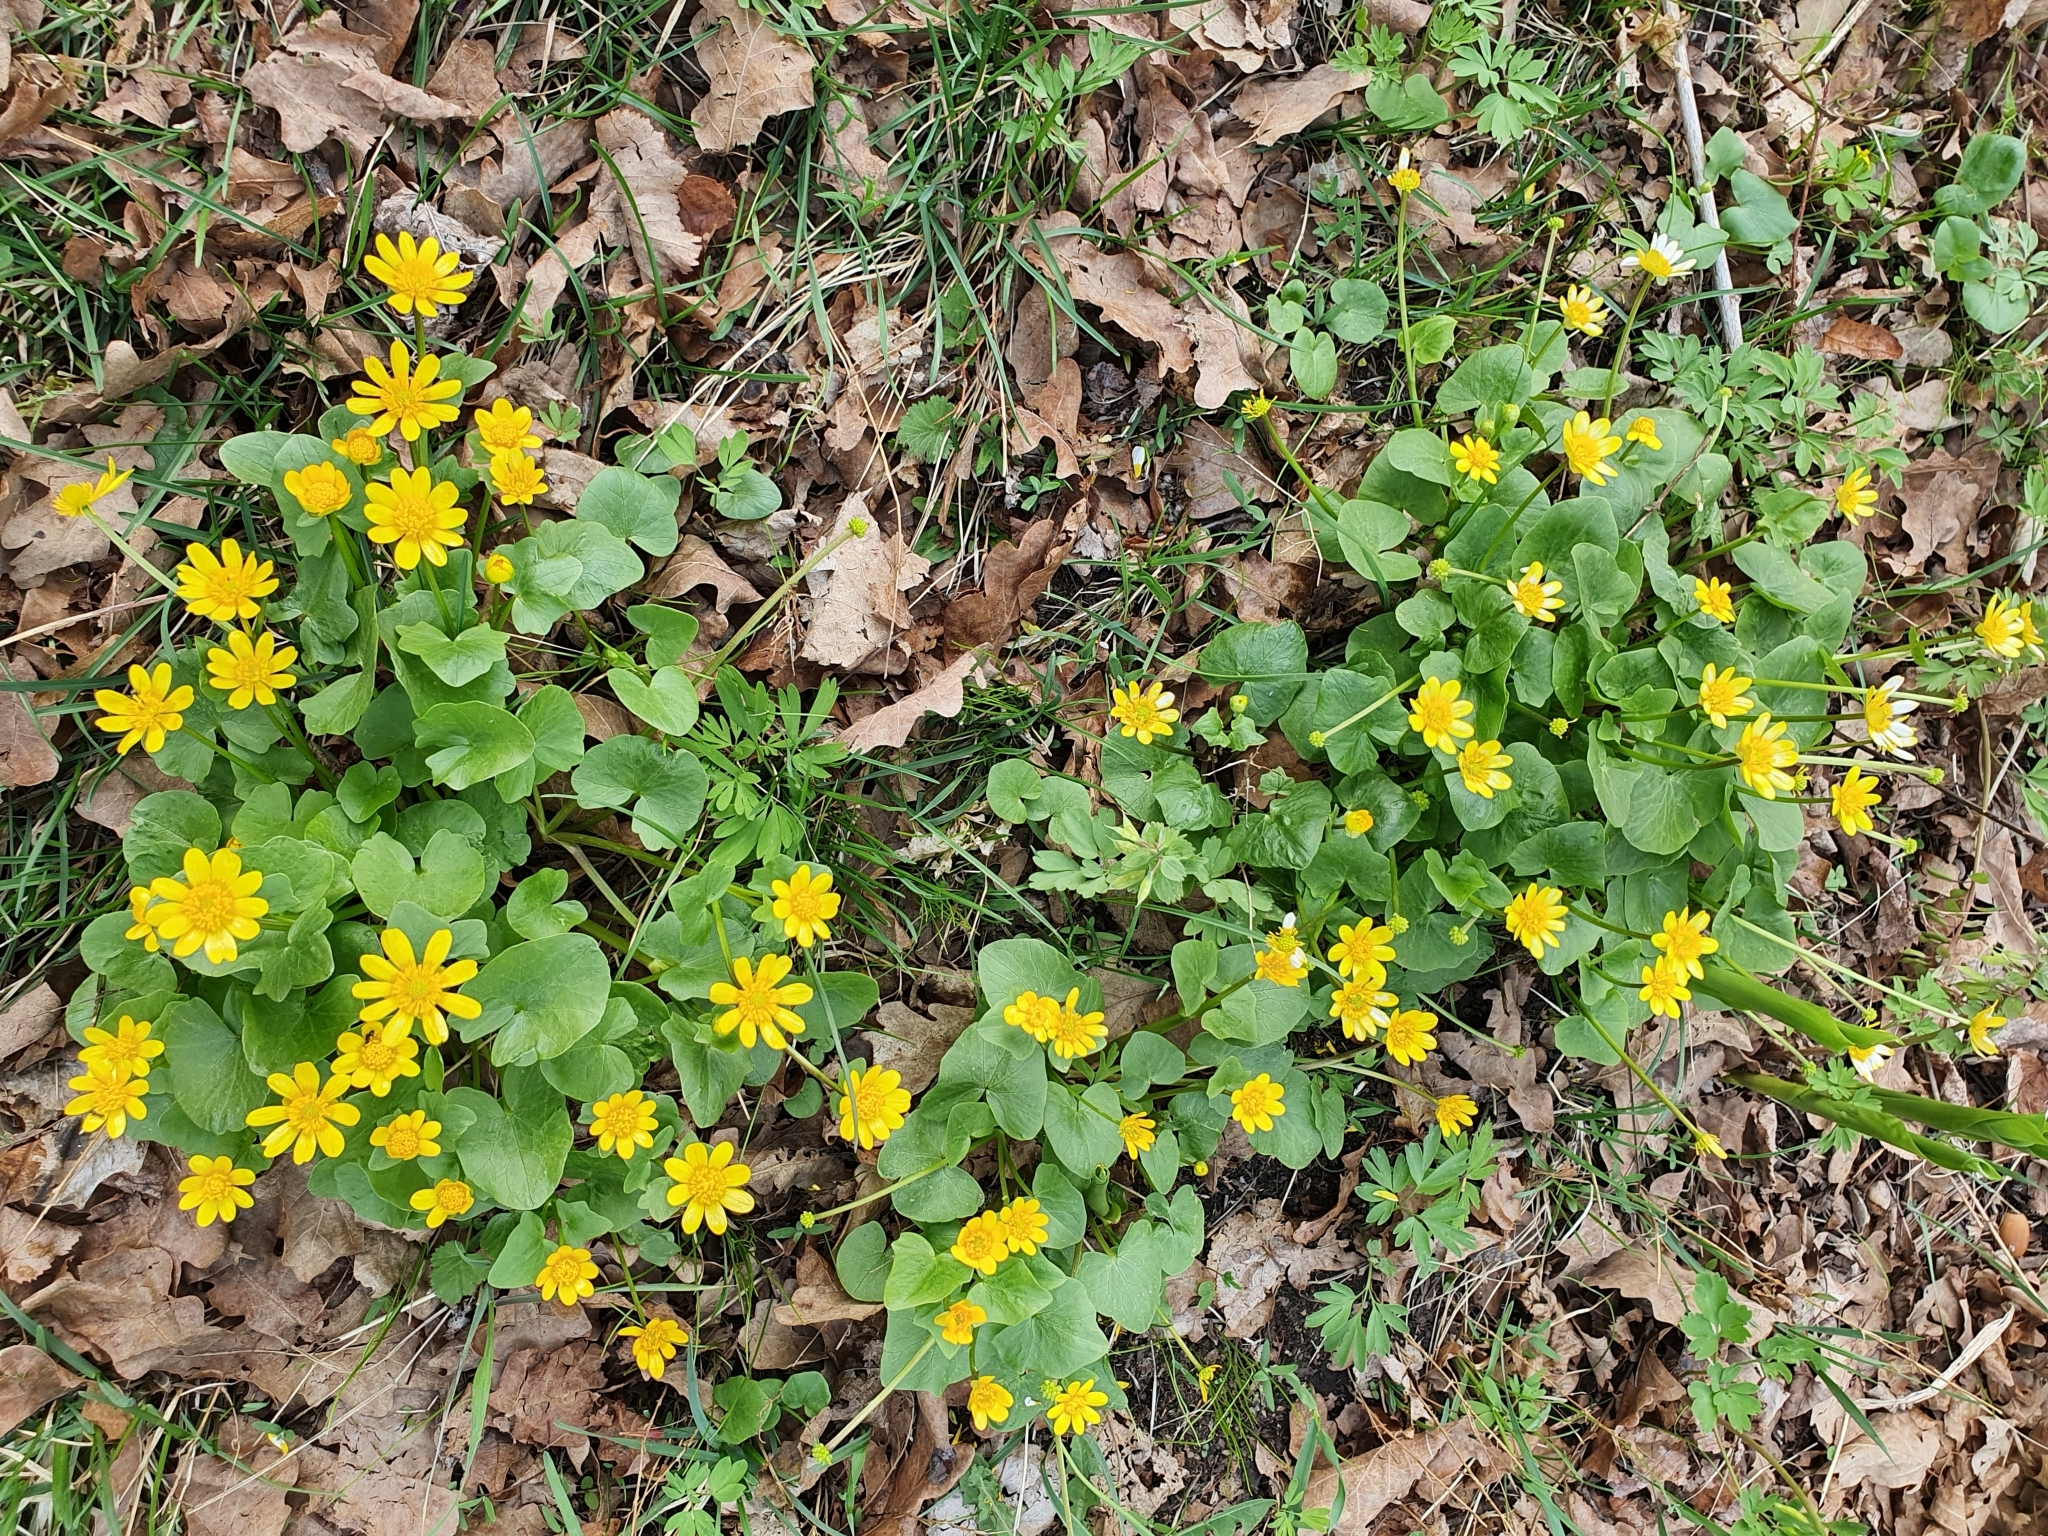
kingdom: Plantae
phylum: Tracheophyta
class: Magnoliopsida
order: Ranunculales
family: Ranunculaceae
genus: Ficaria
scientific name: Ficaria verna
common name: Lesser celandine
